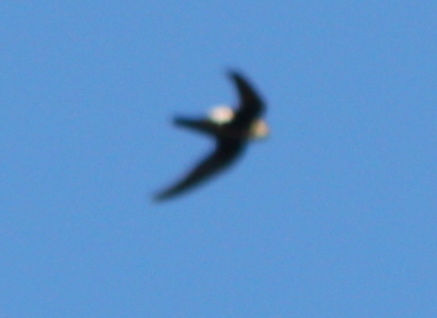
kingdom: Animalia
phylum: Chordata
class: Aves
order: Apodiformes
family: Apodidae
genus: Aeronautes
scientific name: Aeronautes saxatalis
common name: White-throated swift
